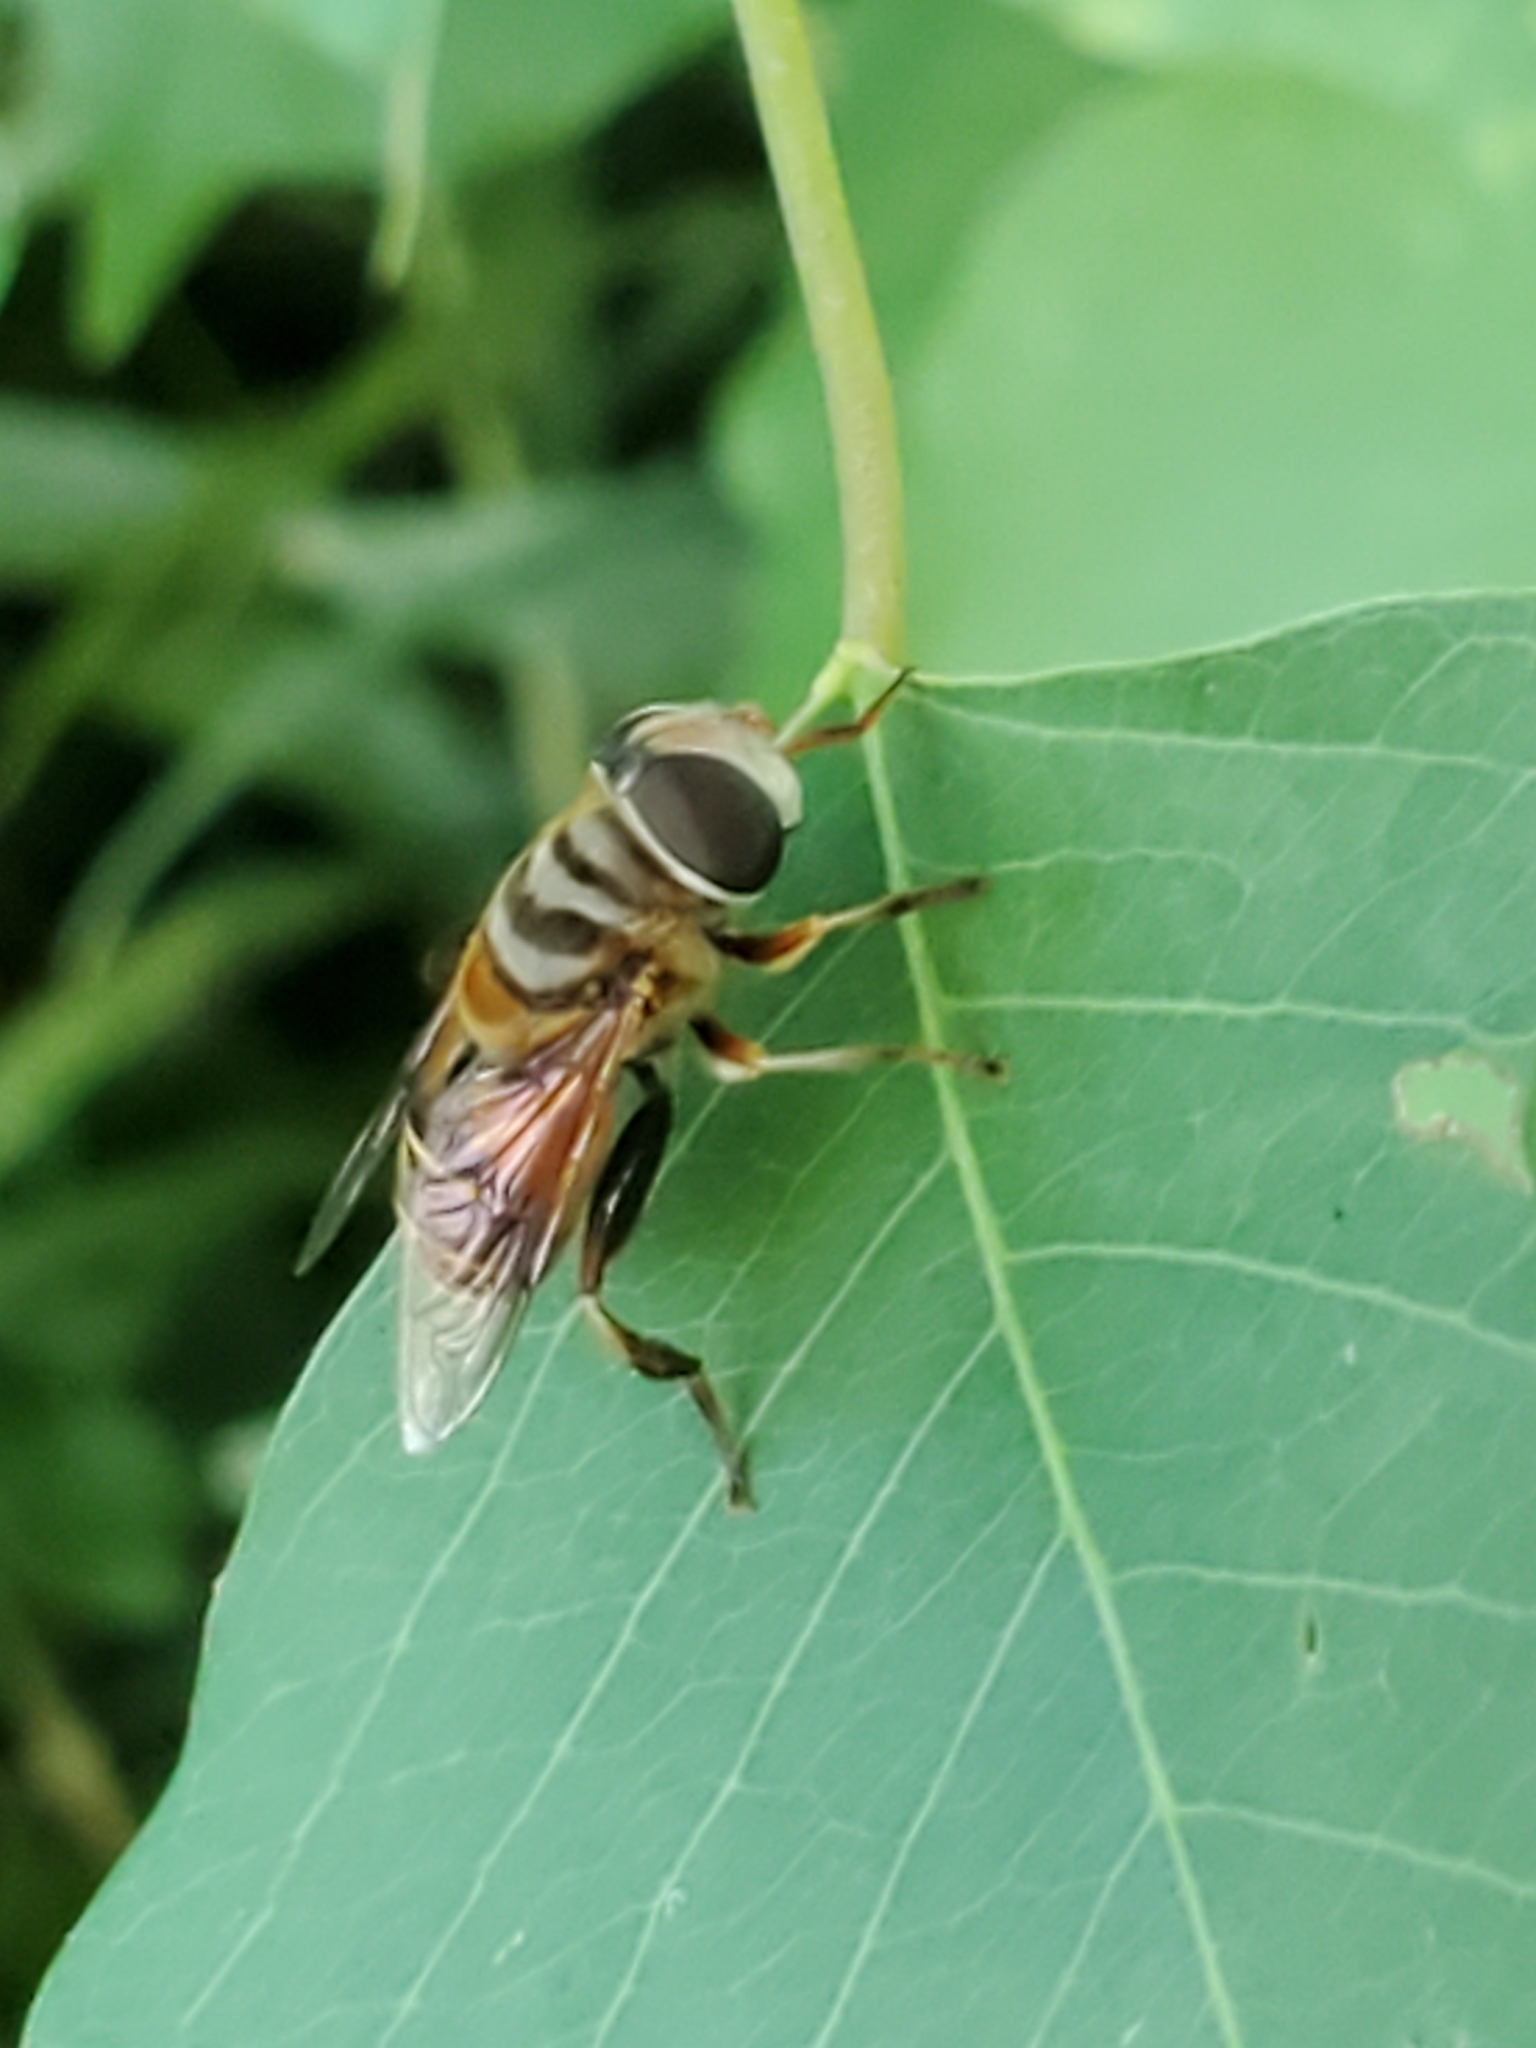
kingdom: Animalia
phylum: Arthropoda
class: Insecta
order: Diptera
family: Syrphidae
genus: Palpada
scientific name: Palpada vinetorum
